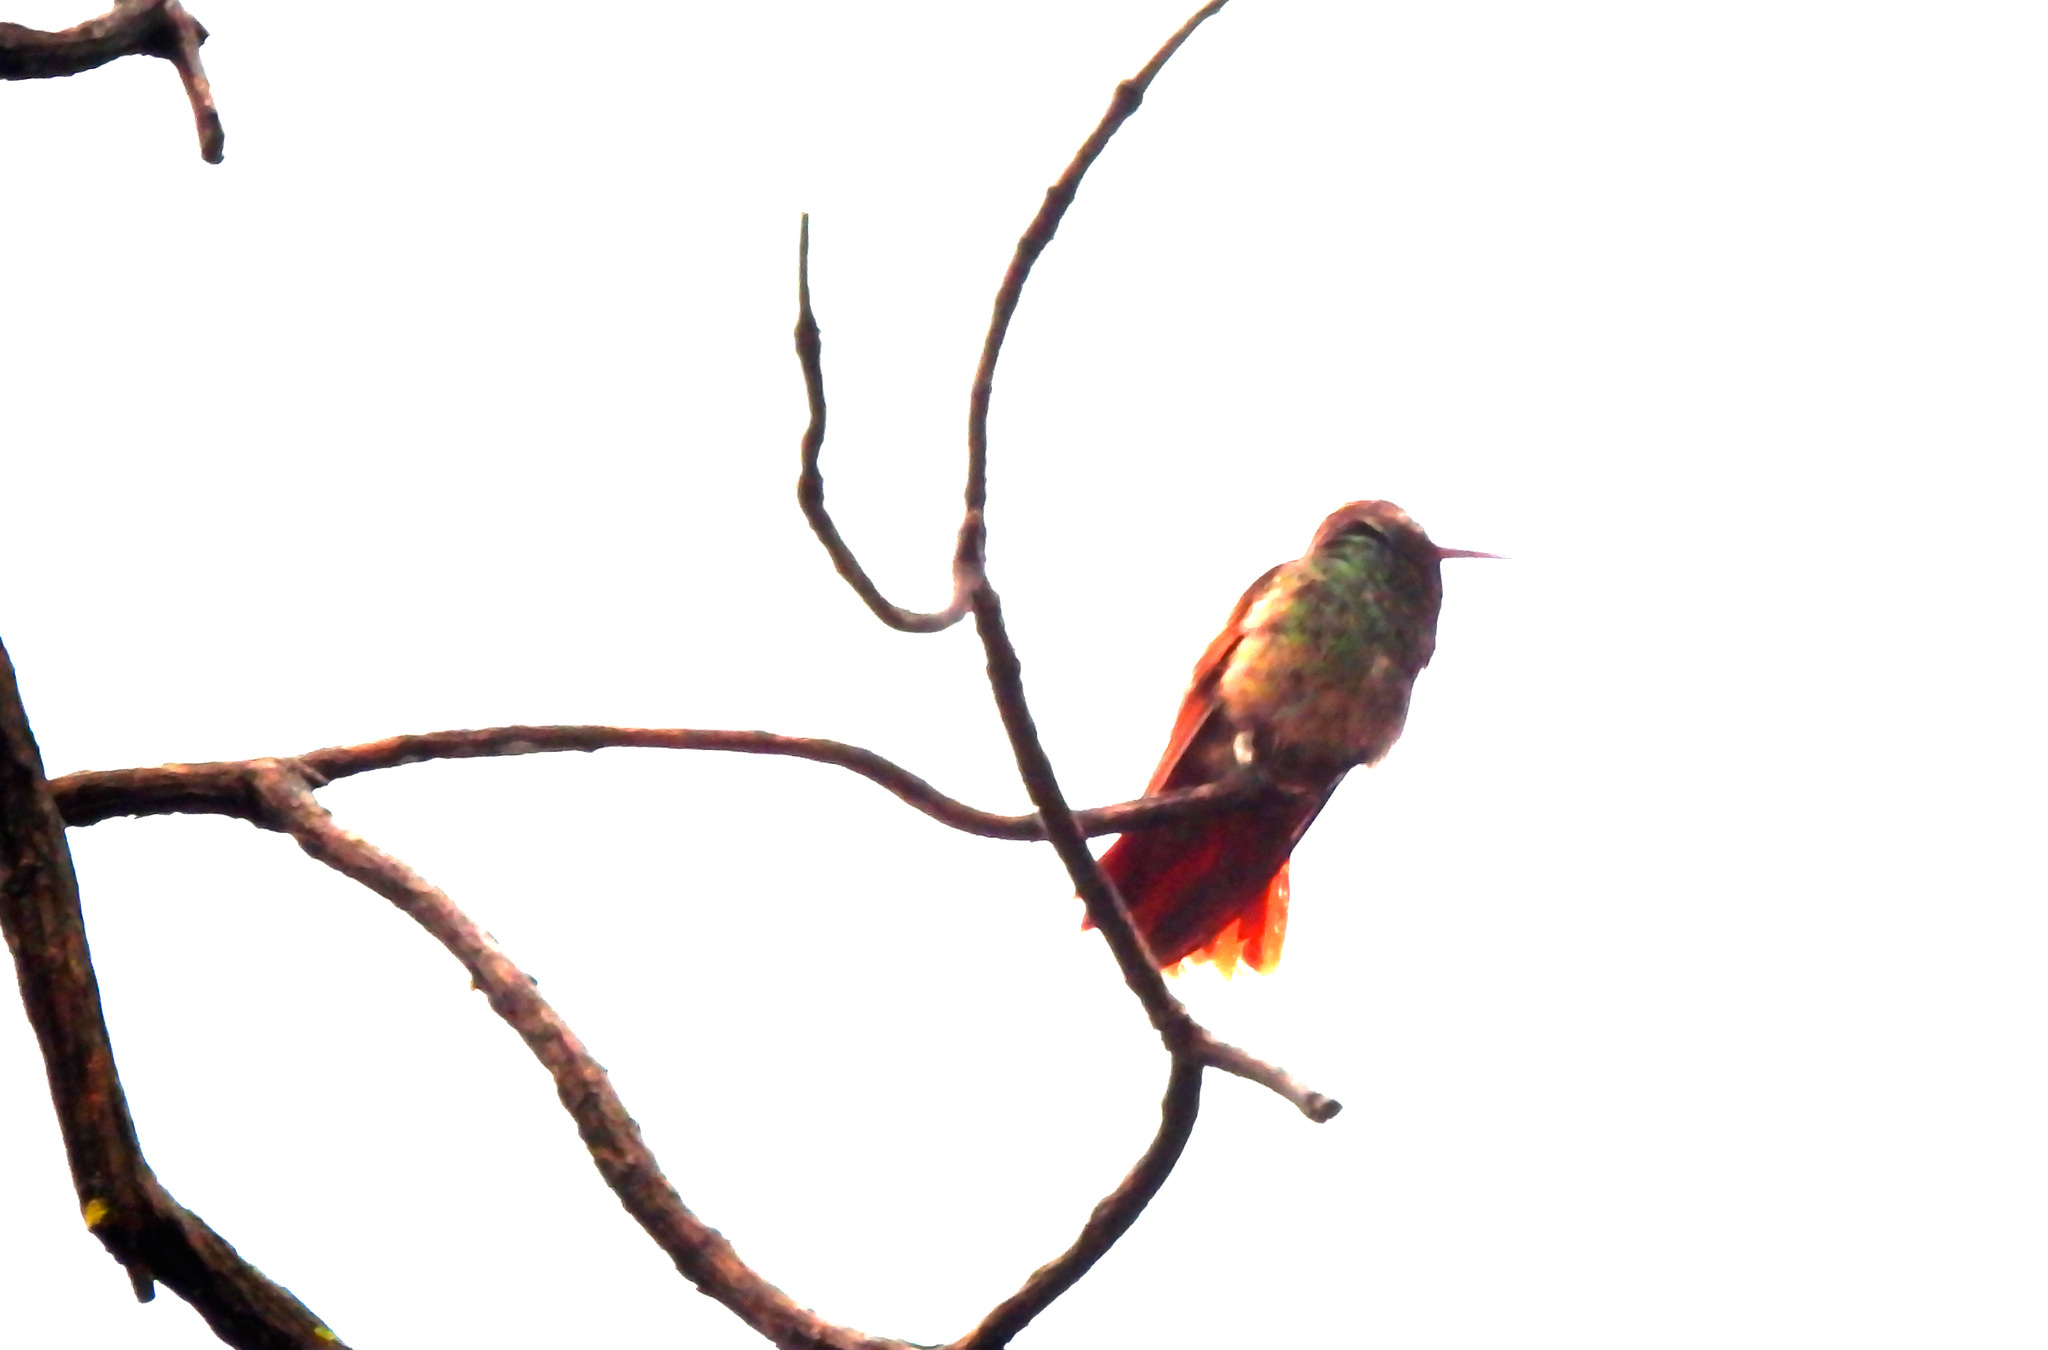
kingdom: Animalia
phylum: Chordata
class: Aves
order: Apodiformes
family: Trochilidae
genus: Saucerottia
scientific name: Saucerottia beryllina
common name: Berylline hummingbird
